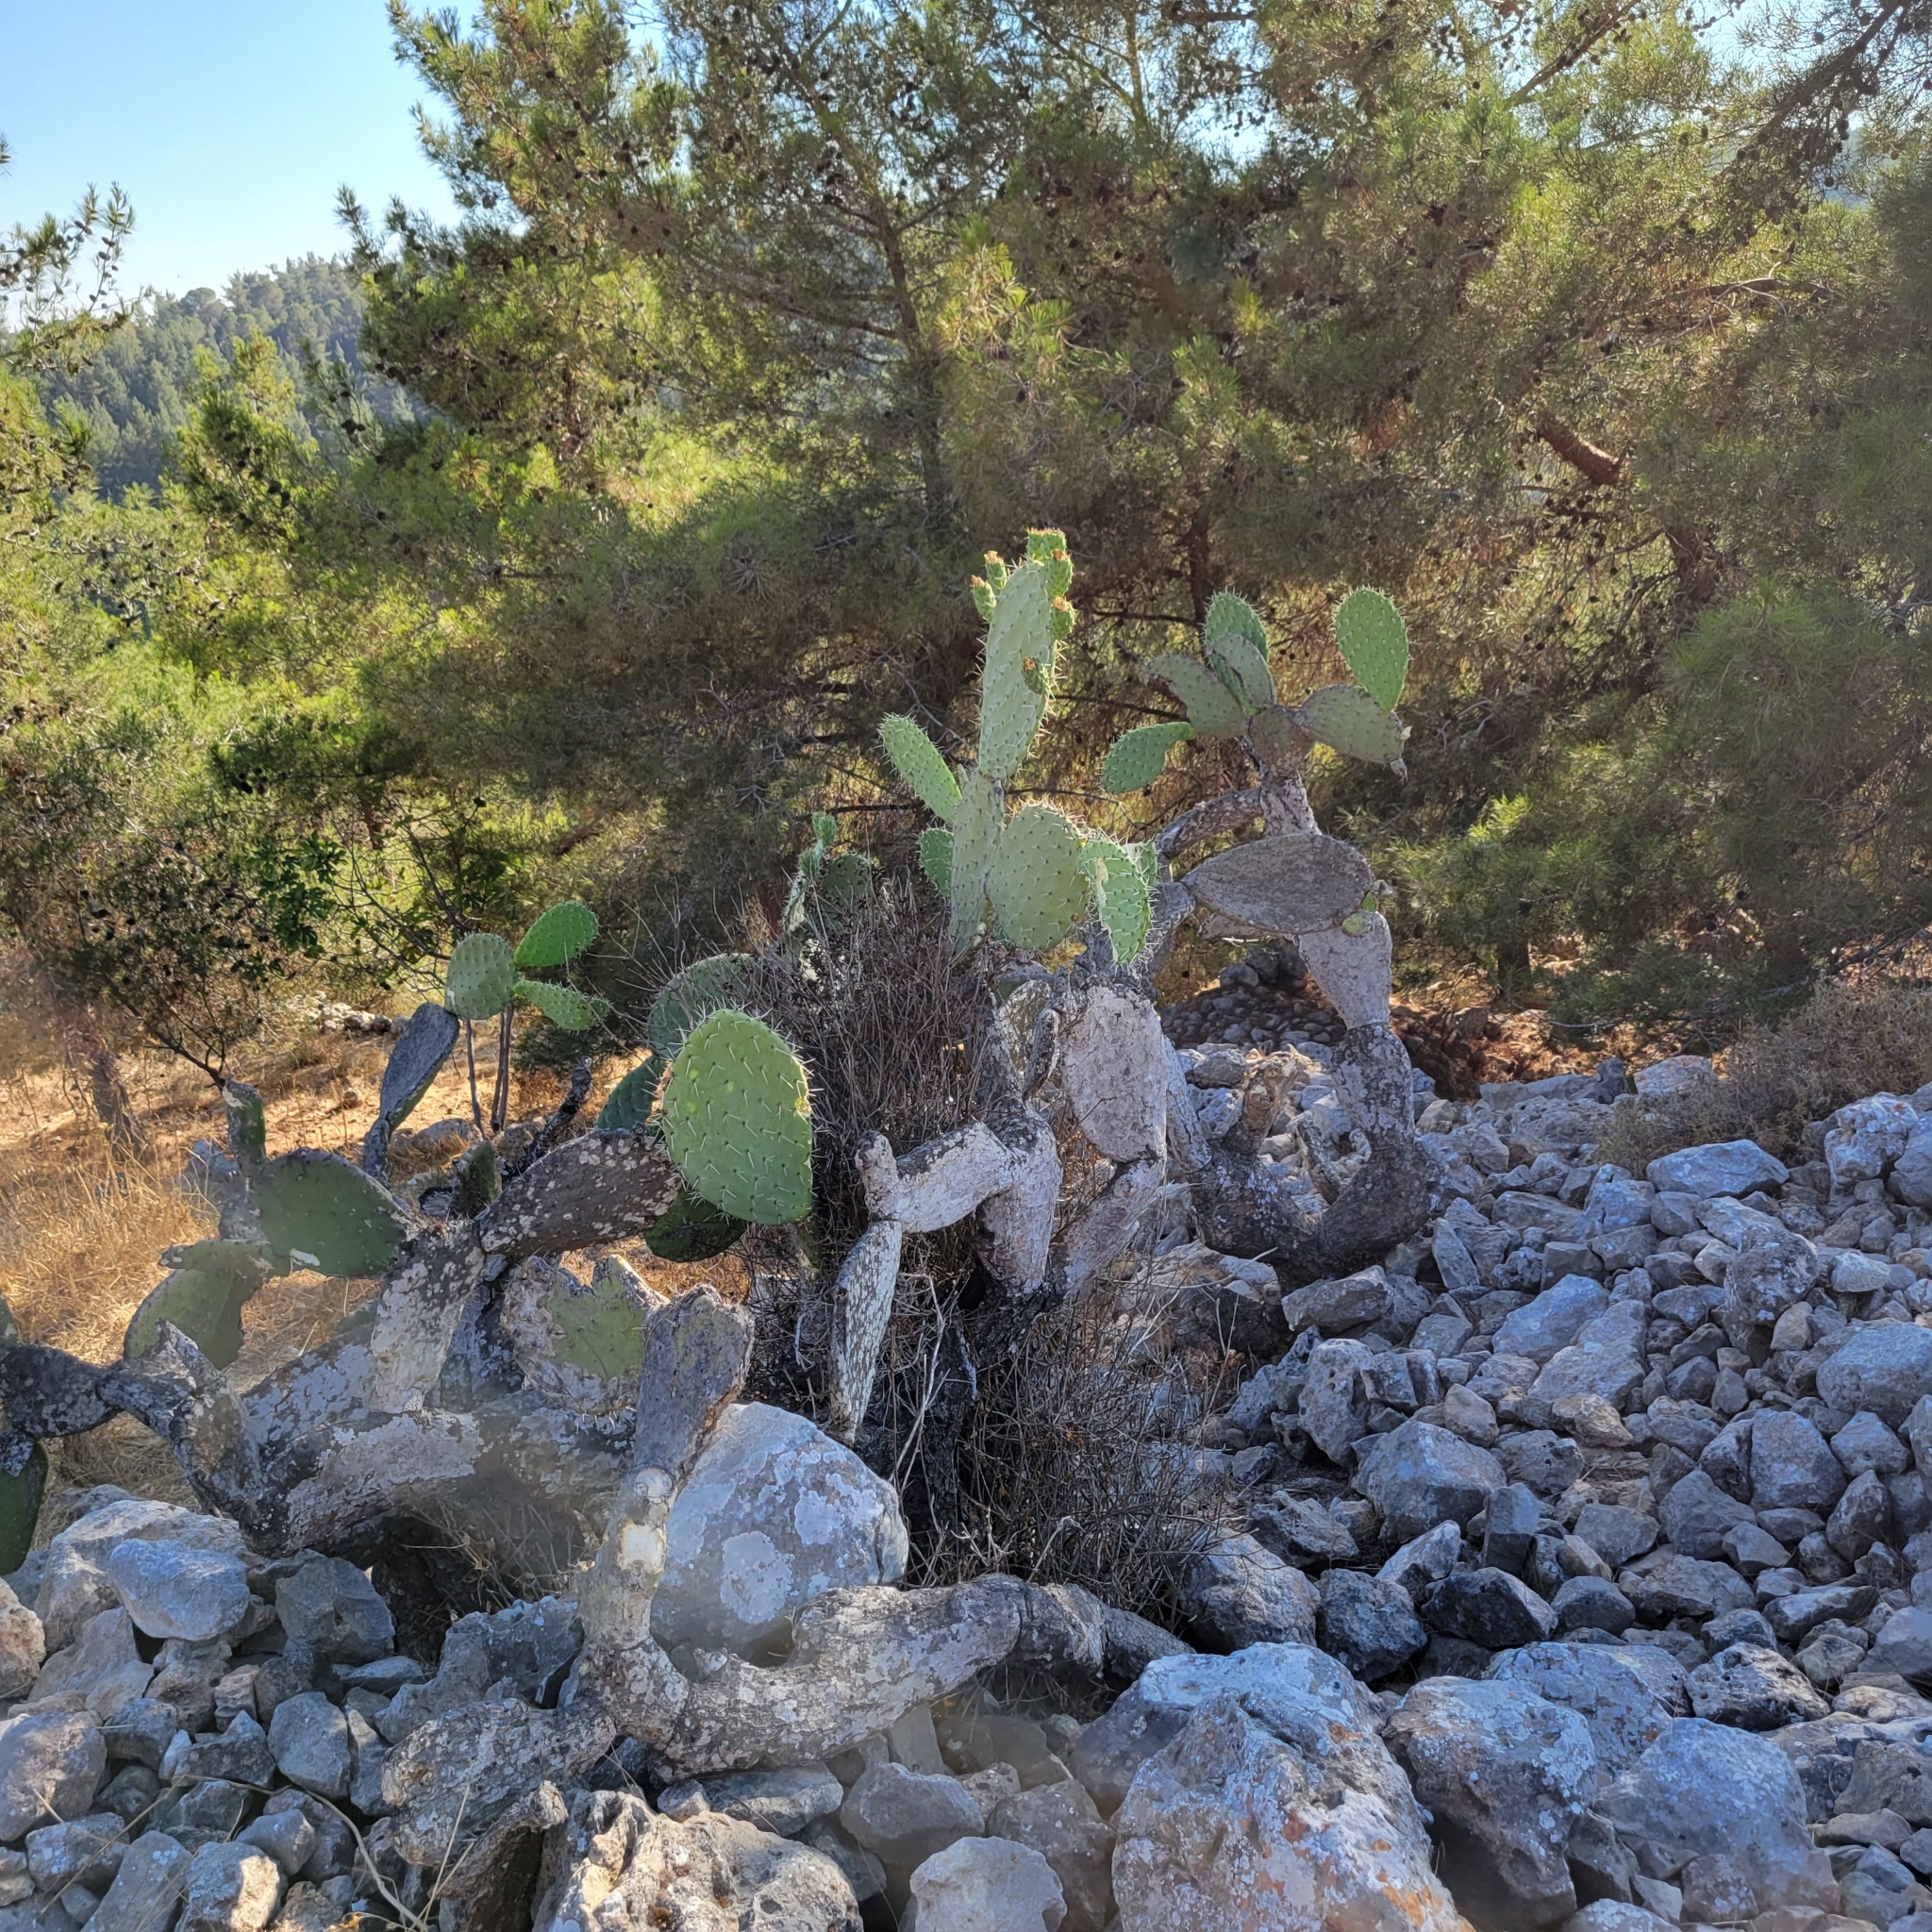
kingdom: Plantae
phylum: Tracheophyta
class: Magnoliopsida
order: Caryophyllales
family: Cactaceae
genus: Opuntia
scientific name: Opuntia ficus-indica
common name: Barbary fig
